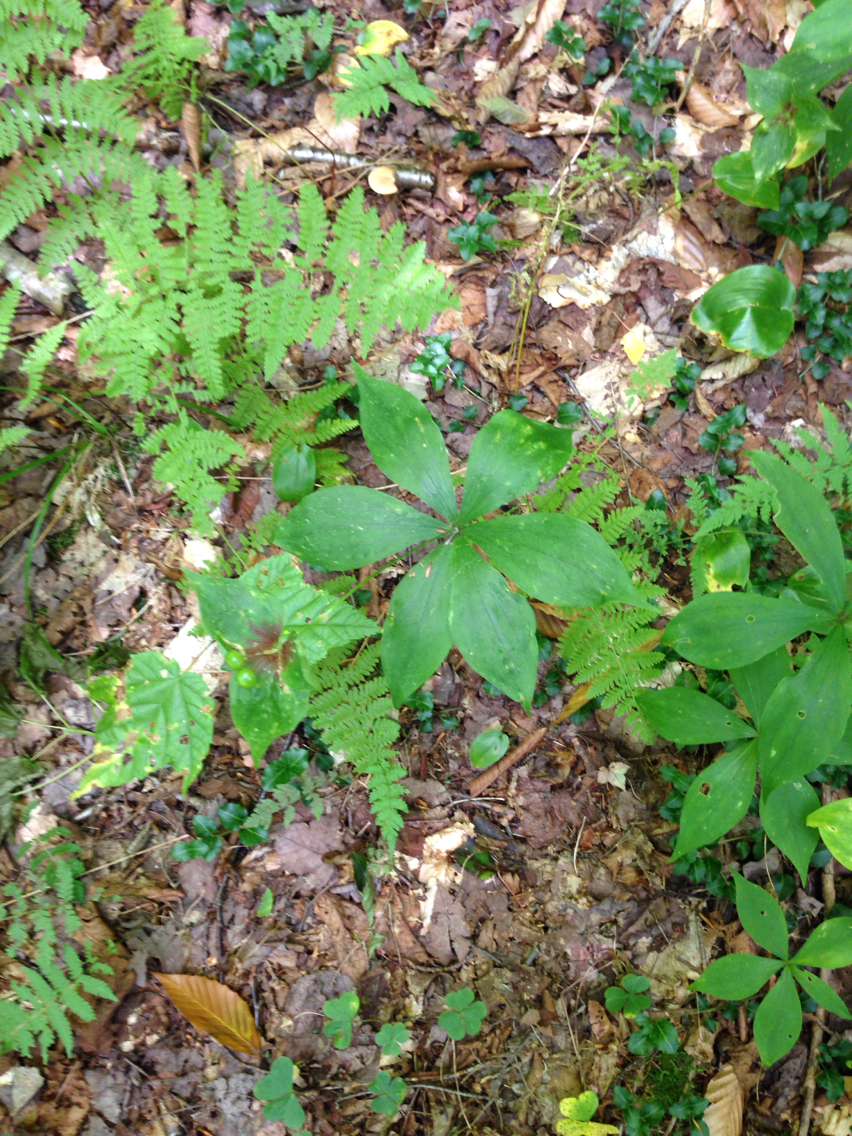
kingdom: Plantae
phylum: Tracheophyta
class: Liliopsida
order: Liliales
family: Liliaceae
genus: Medeola
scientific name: Medeola virginiana
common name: Indian cucumber-root
